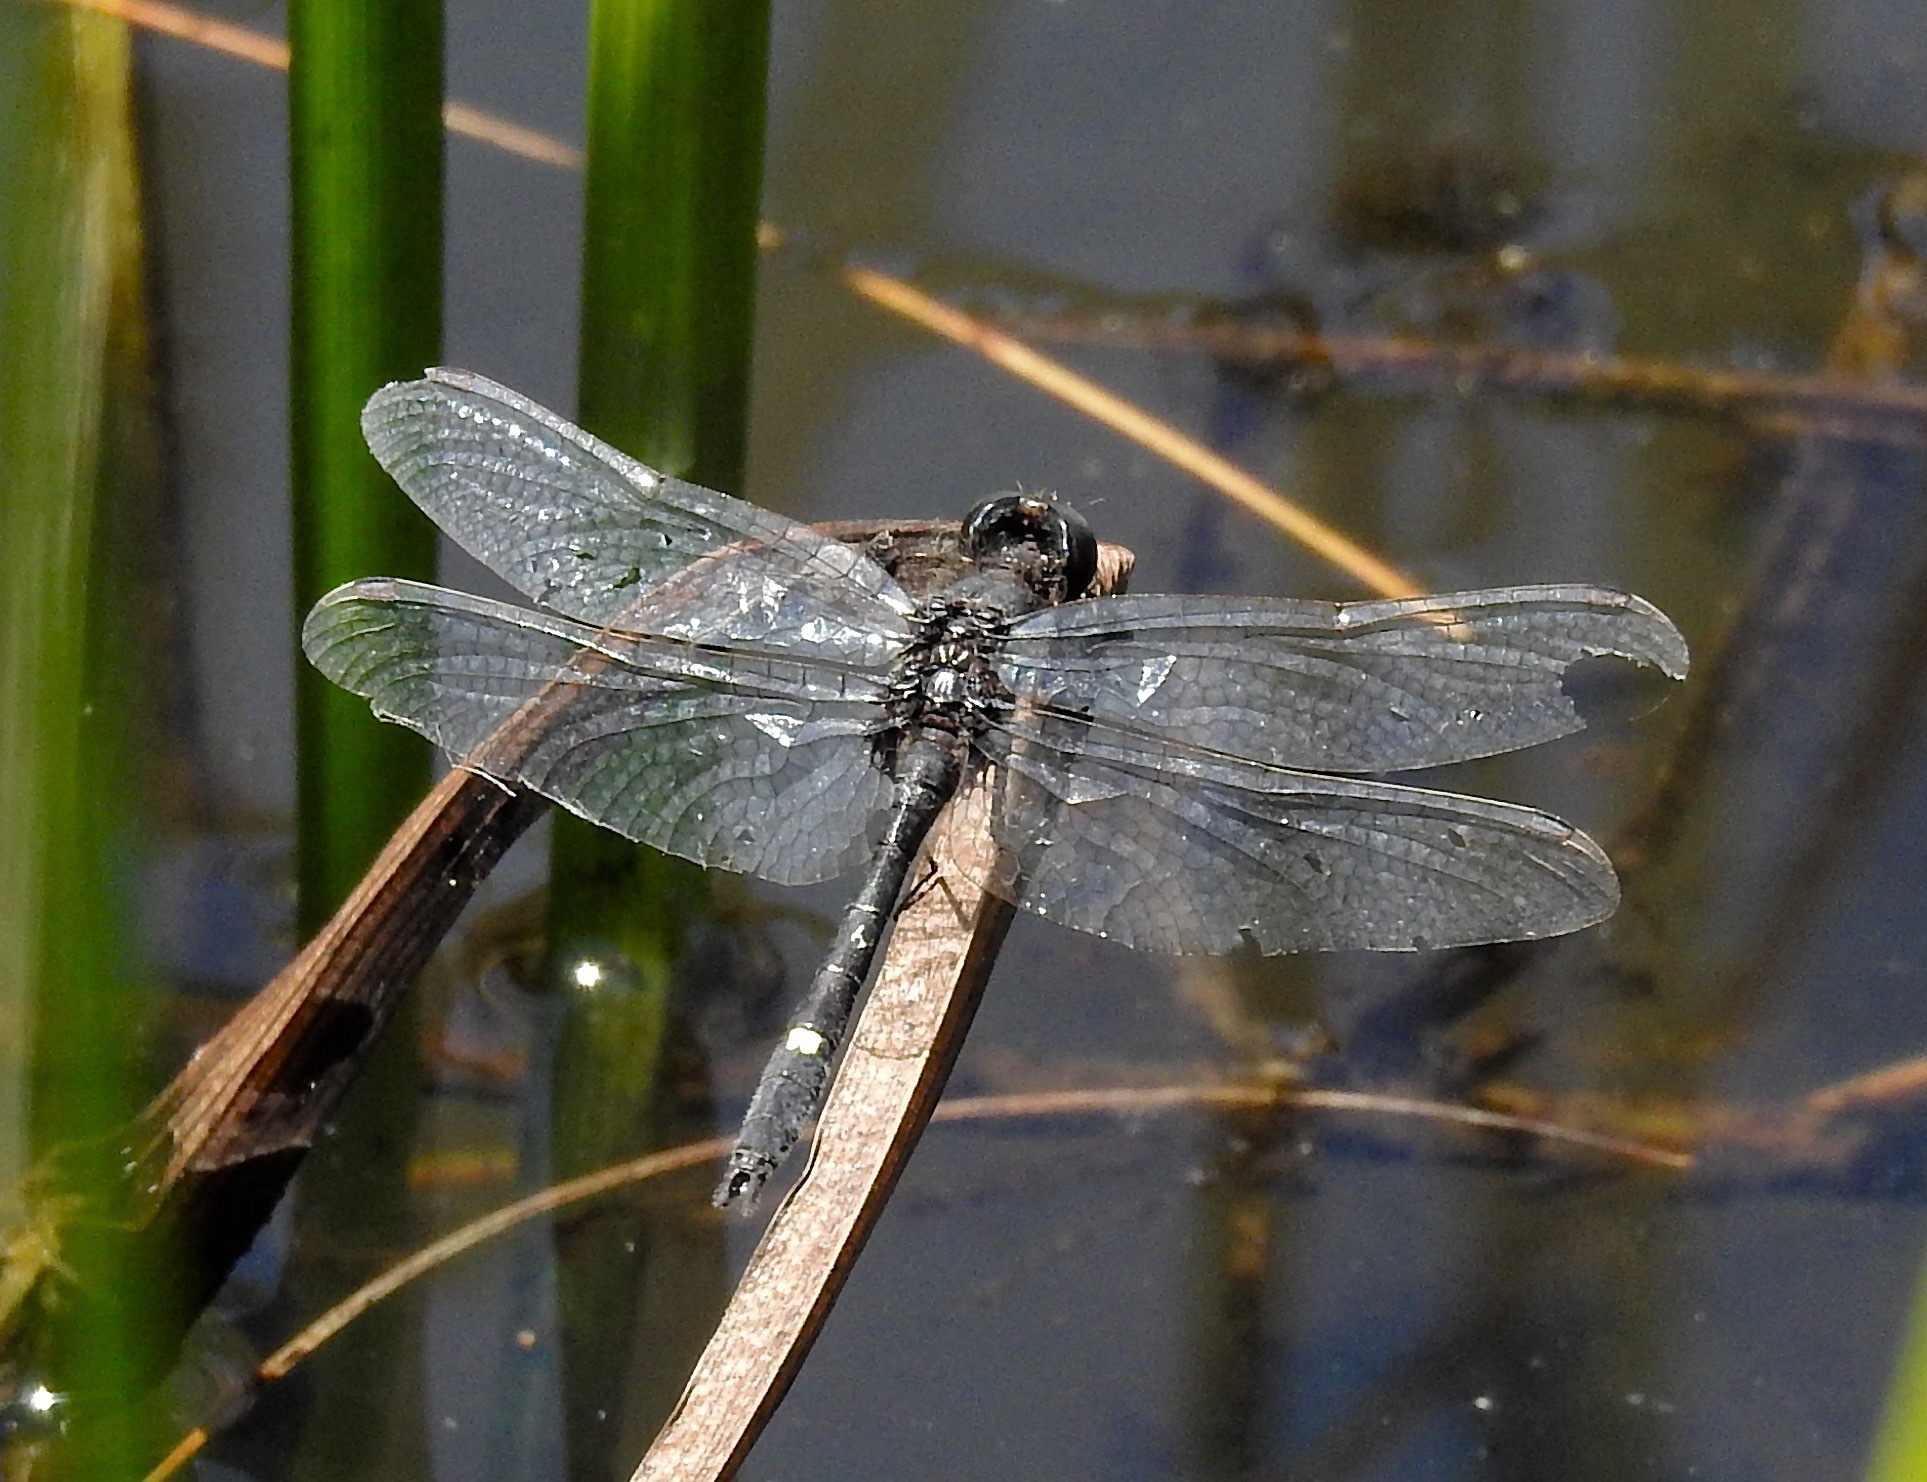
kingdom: Animalia
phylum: Arthropoda
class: Insecta
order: Odonata
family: Libellulidae
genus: Leucorrhinia
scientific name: Leucorrhinia intacta
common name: Dot-tailed whiteface
